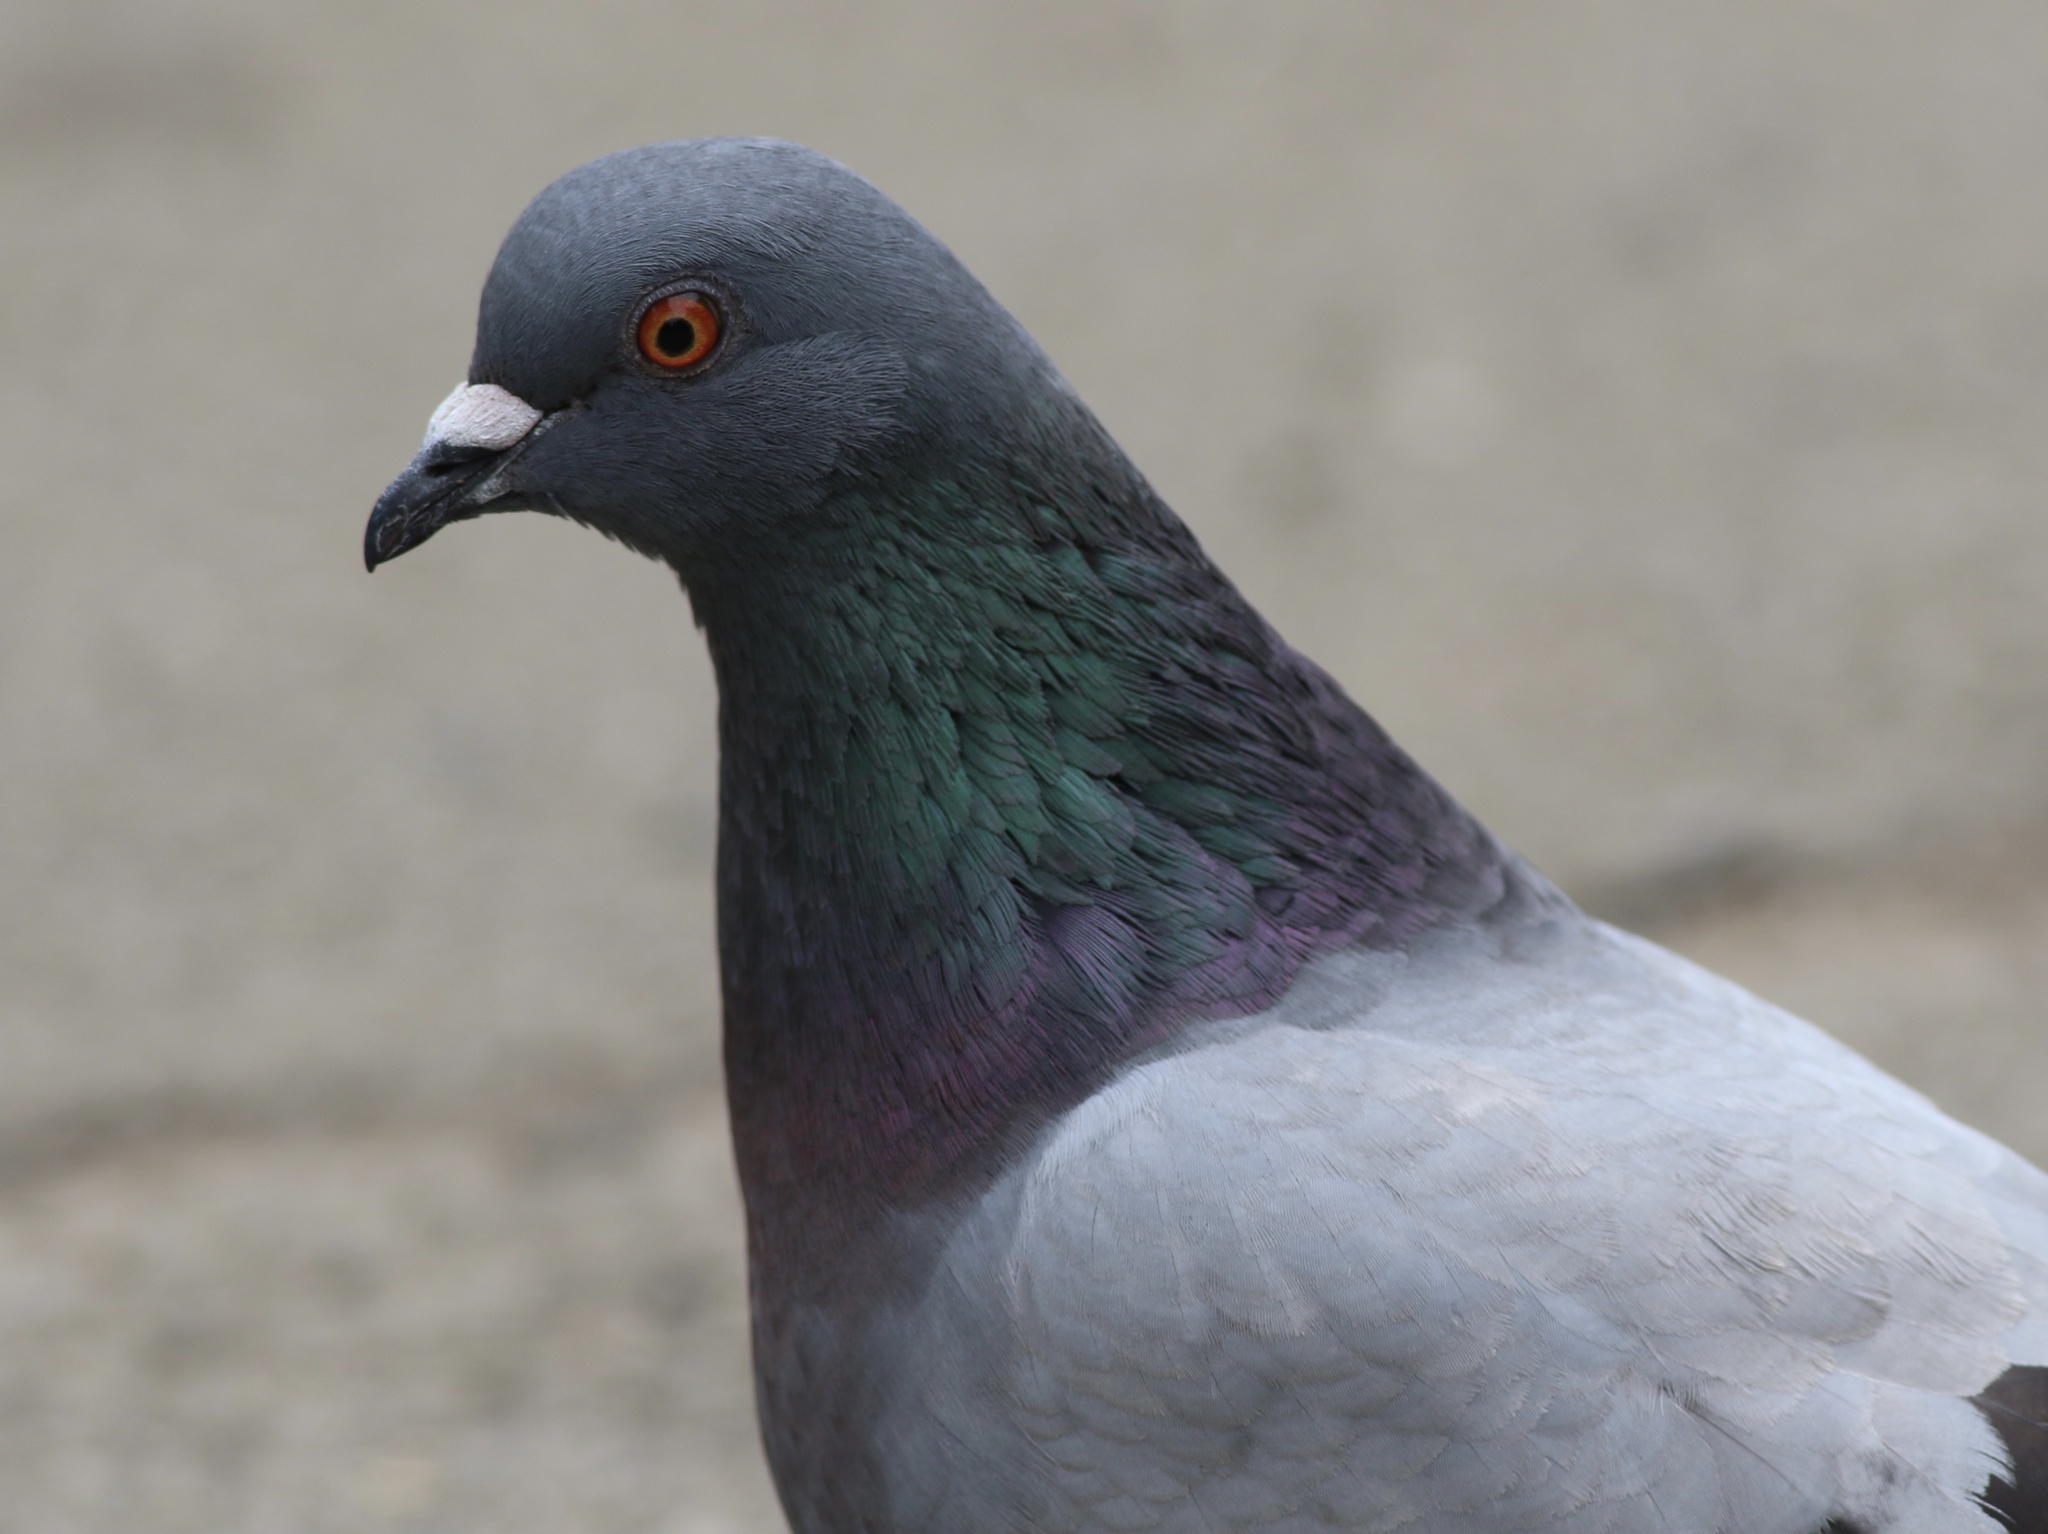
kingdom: Animalia
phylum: Chordata
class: Aves
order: Columbiformes
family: Columbidae
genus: Columba
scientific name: Columba livia
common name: Rock pigeon
